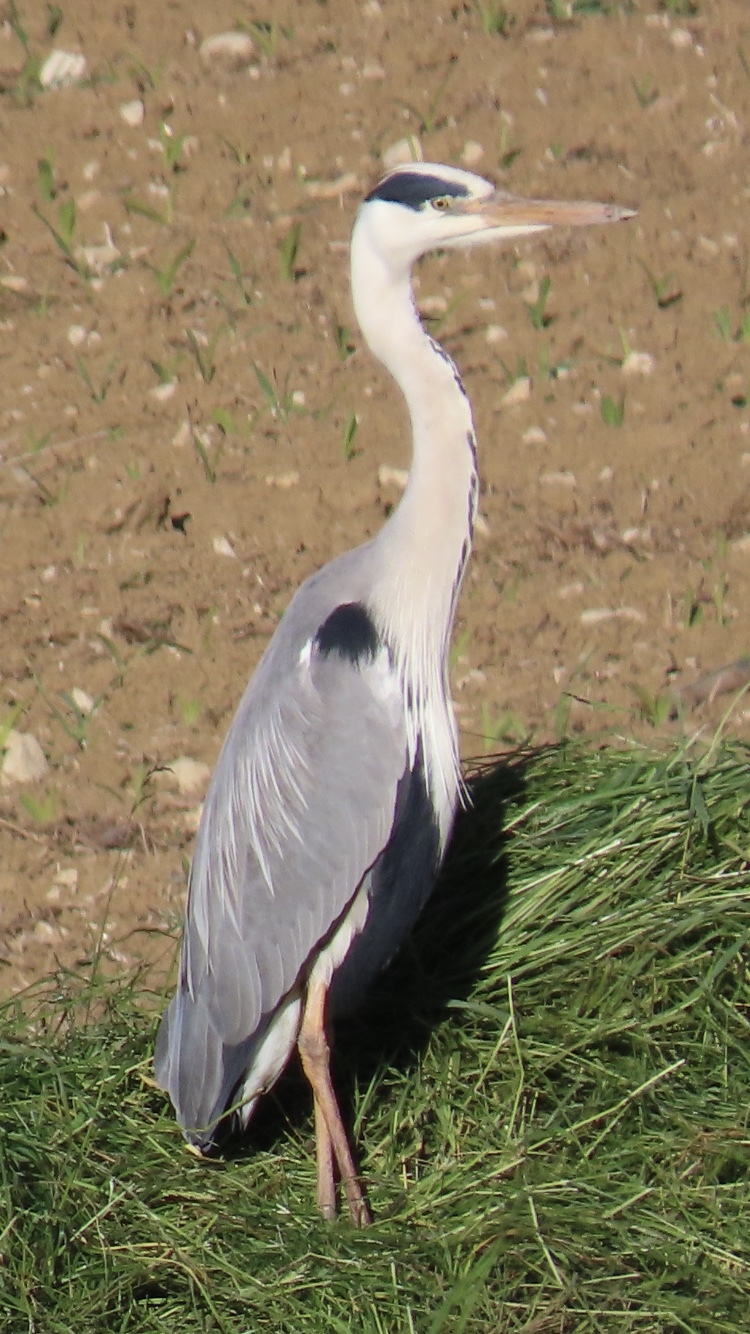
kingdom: Animalia
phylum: Chordata
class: Aves
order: Pelecaniformes
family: Ardeidae
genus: Ardea
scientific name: Ardea cinerea
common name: Grey heron
